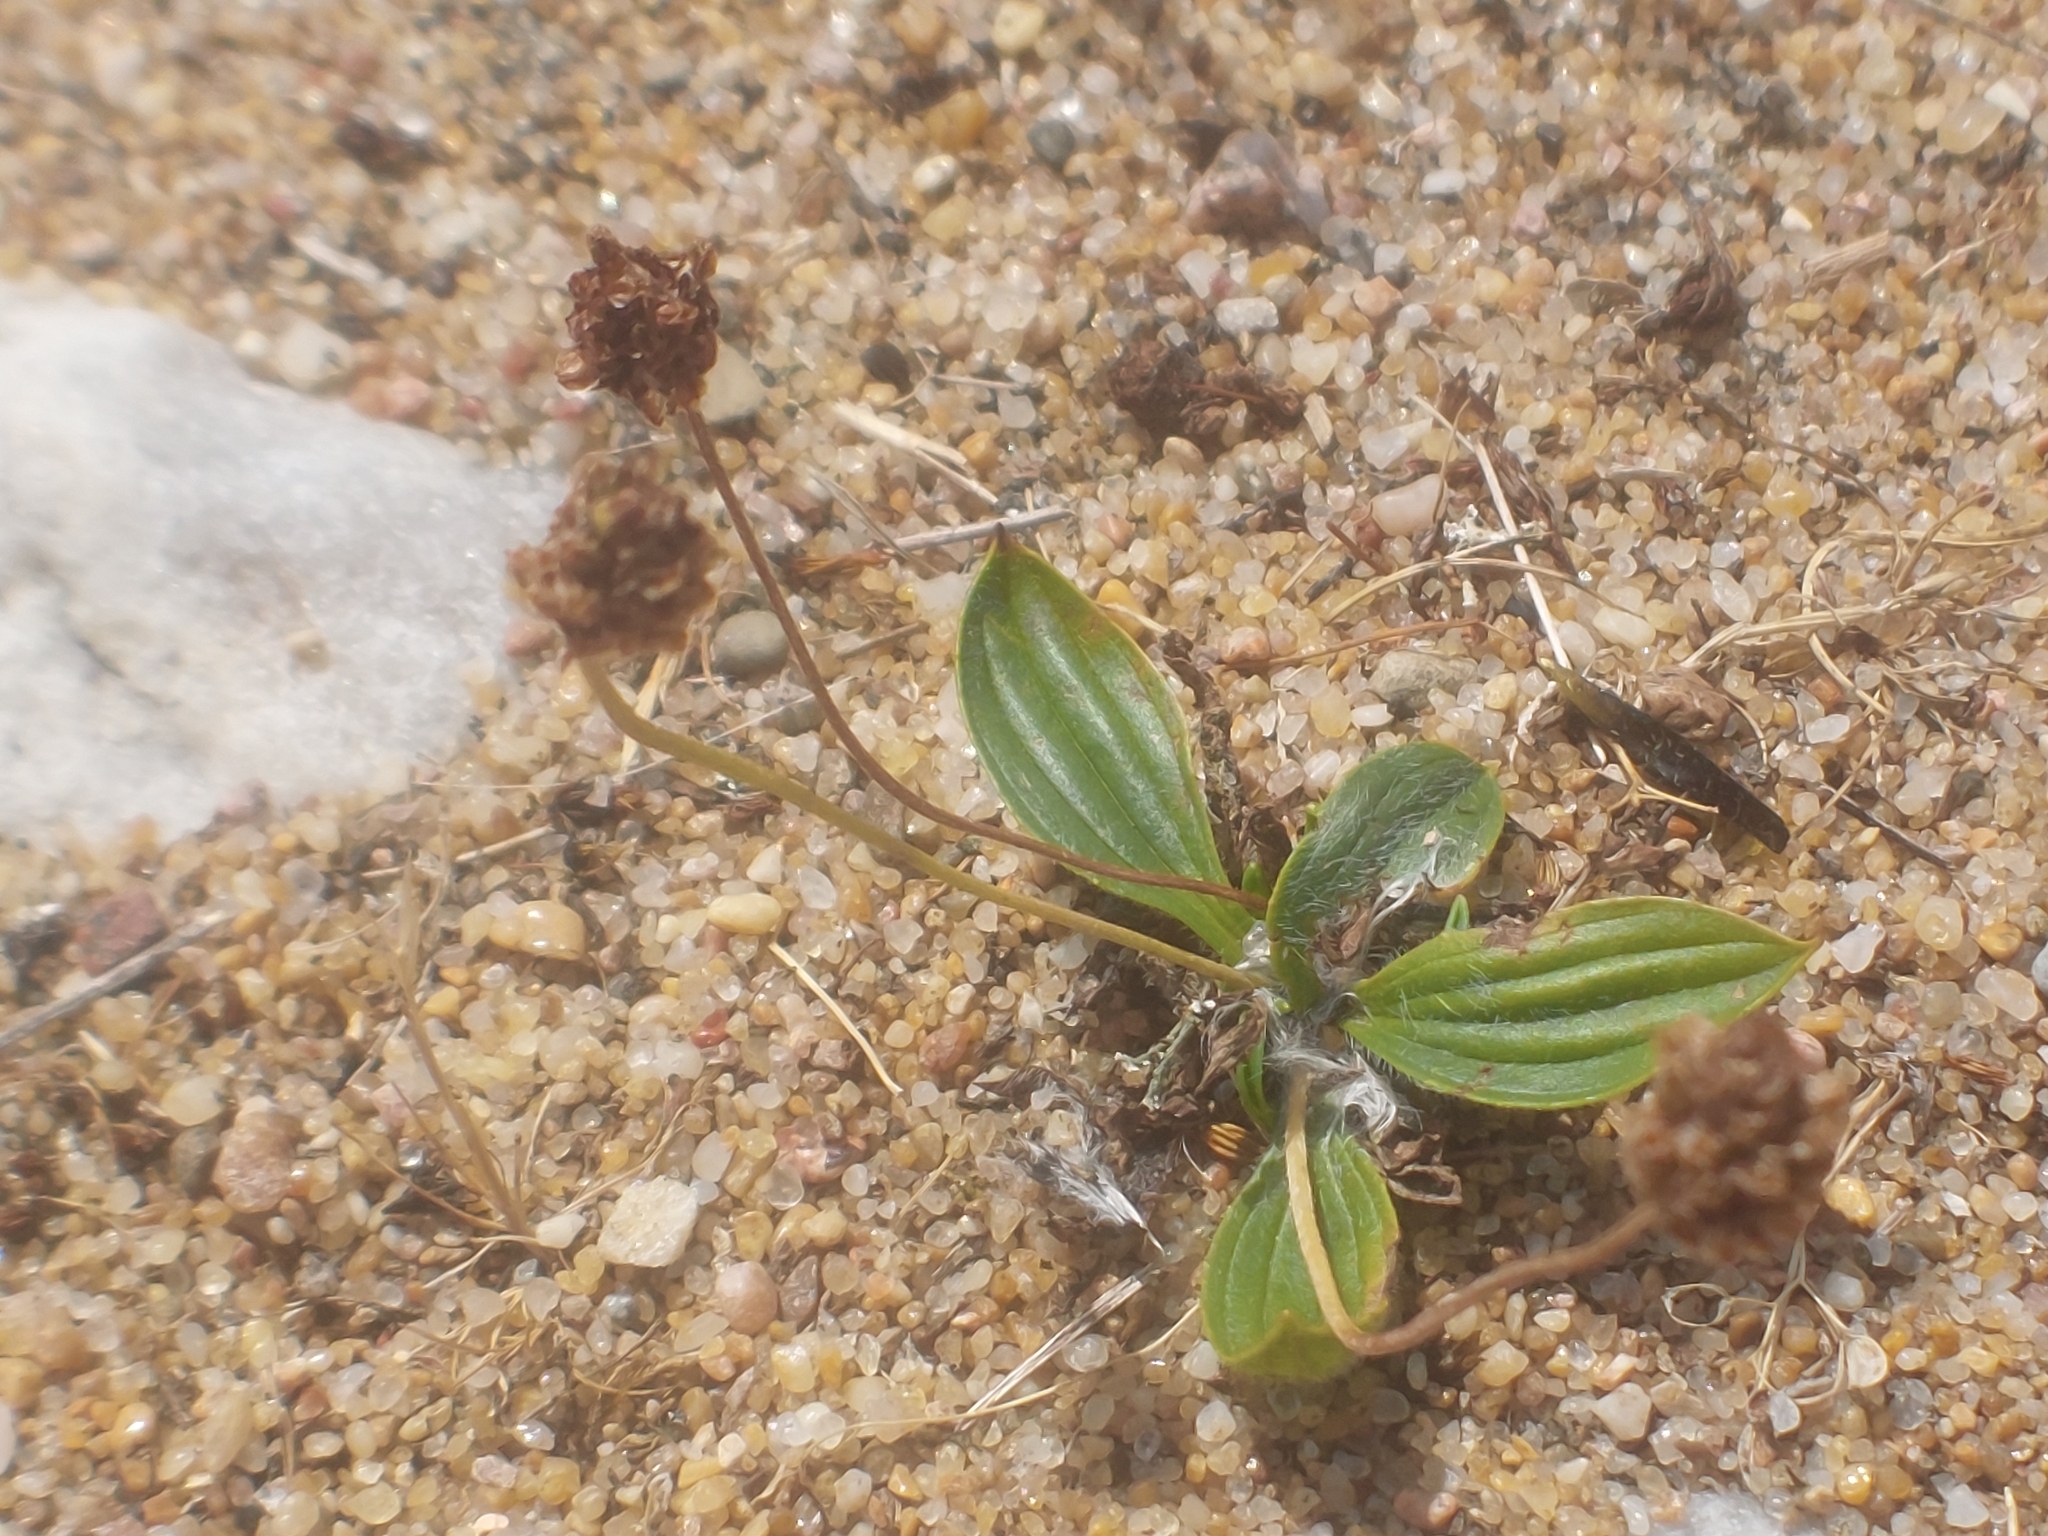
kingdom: Plantae
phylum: Tracheophyta
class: Magnoliopsida
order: Lamiales
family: Plantaginaceae
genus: Plantago
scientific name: Plantago lanceolata
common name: Ribwort plantain
